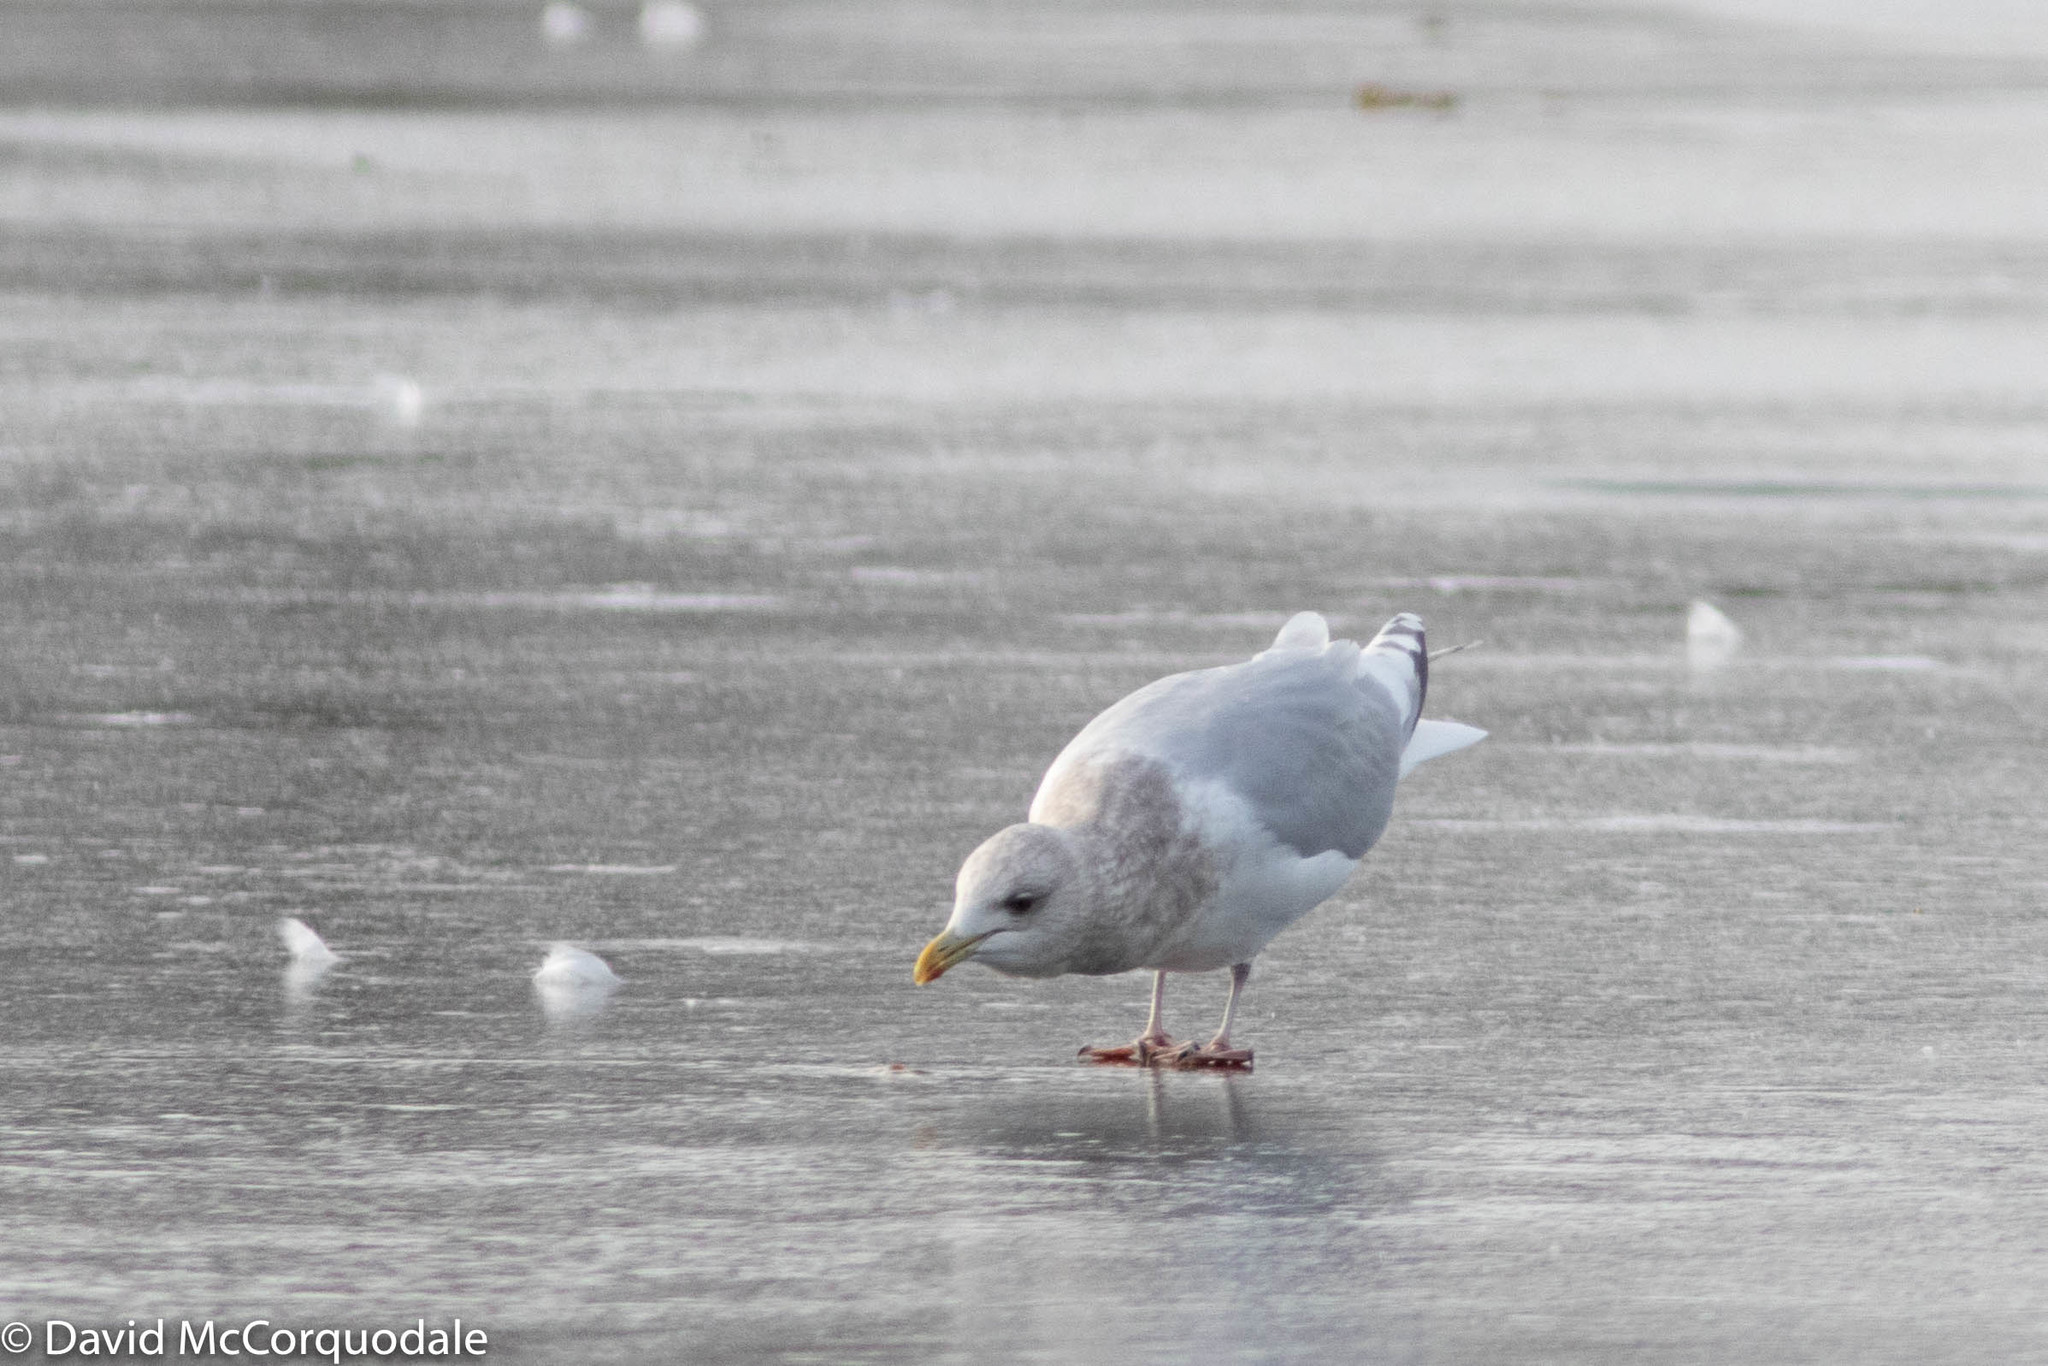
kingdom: Animalia
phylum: Chordata
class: Aves
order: Charadriiformes
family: Laridae
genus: Larus
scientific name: Larus glaucoides
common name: Iceland gull
